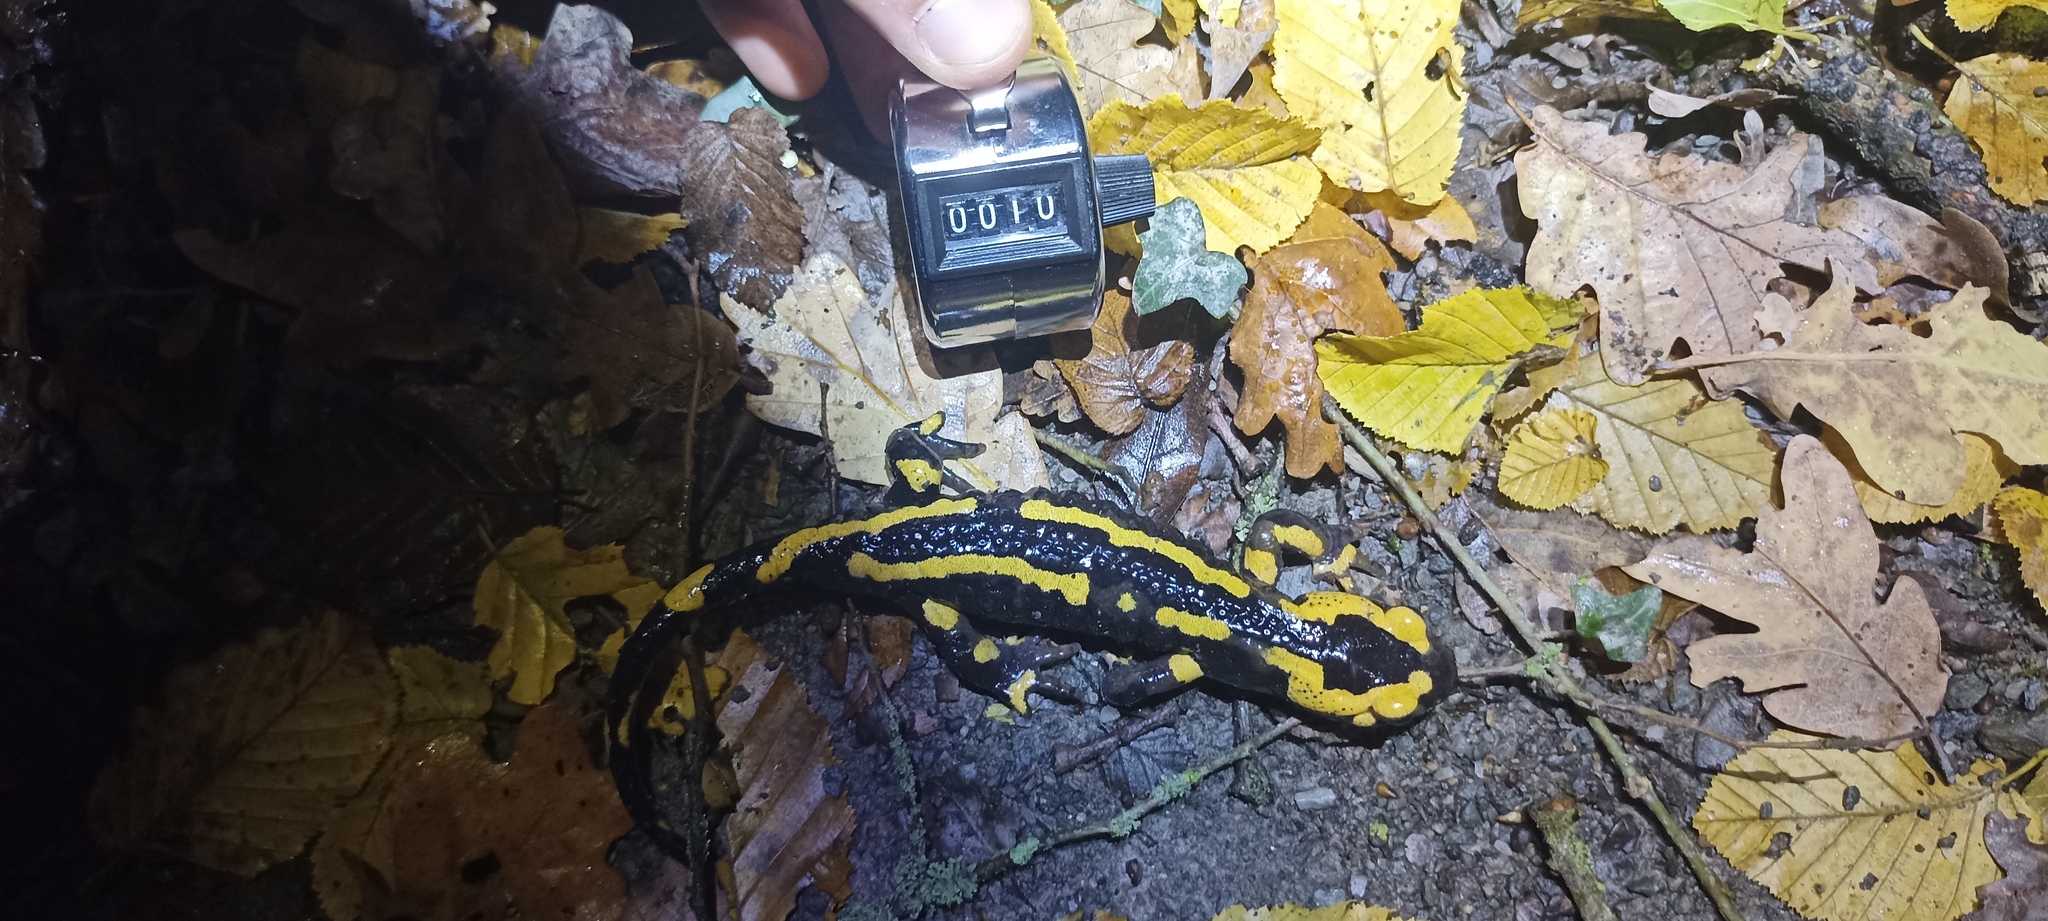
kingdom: Animalia
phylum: Chordata
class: Amphibia
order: Caudata
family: Salamandridae
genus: Salamandra
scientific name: Salamandra salamandra
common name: Fire salamander
